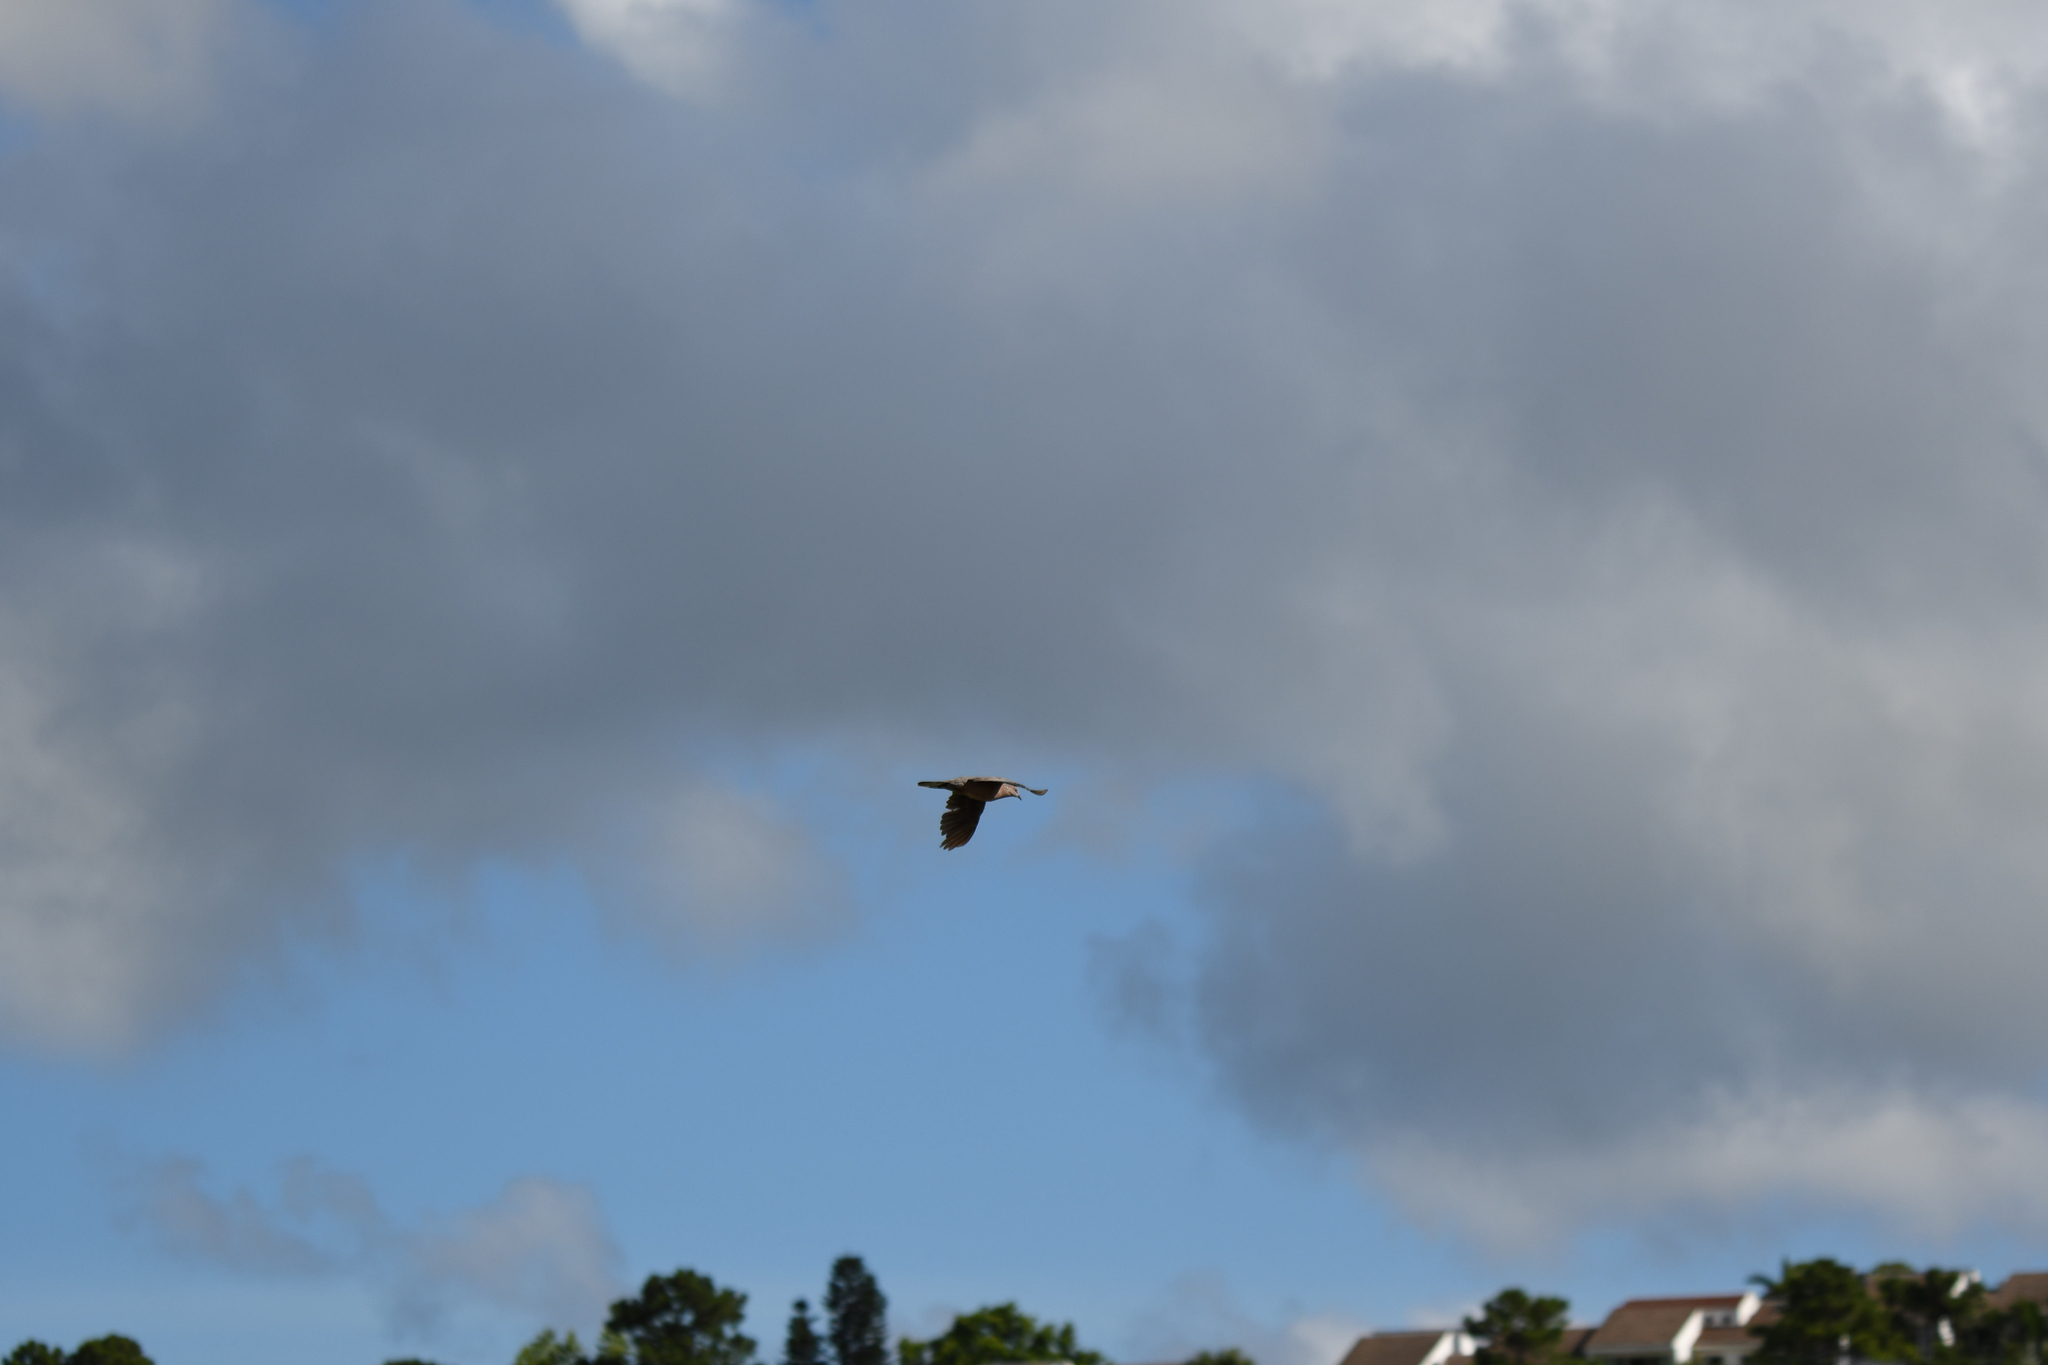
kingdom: Animalia
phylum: Chordata
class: Aves
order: Columbiformes
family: Columbidae
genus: Spilopelia
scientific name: Spilopelia chinensis
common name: Spotted dove
